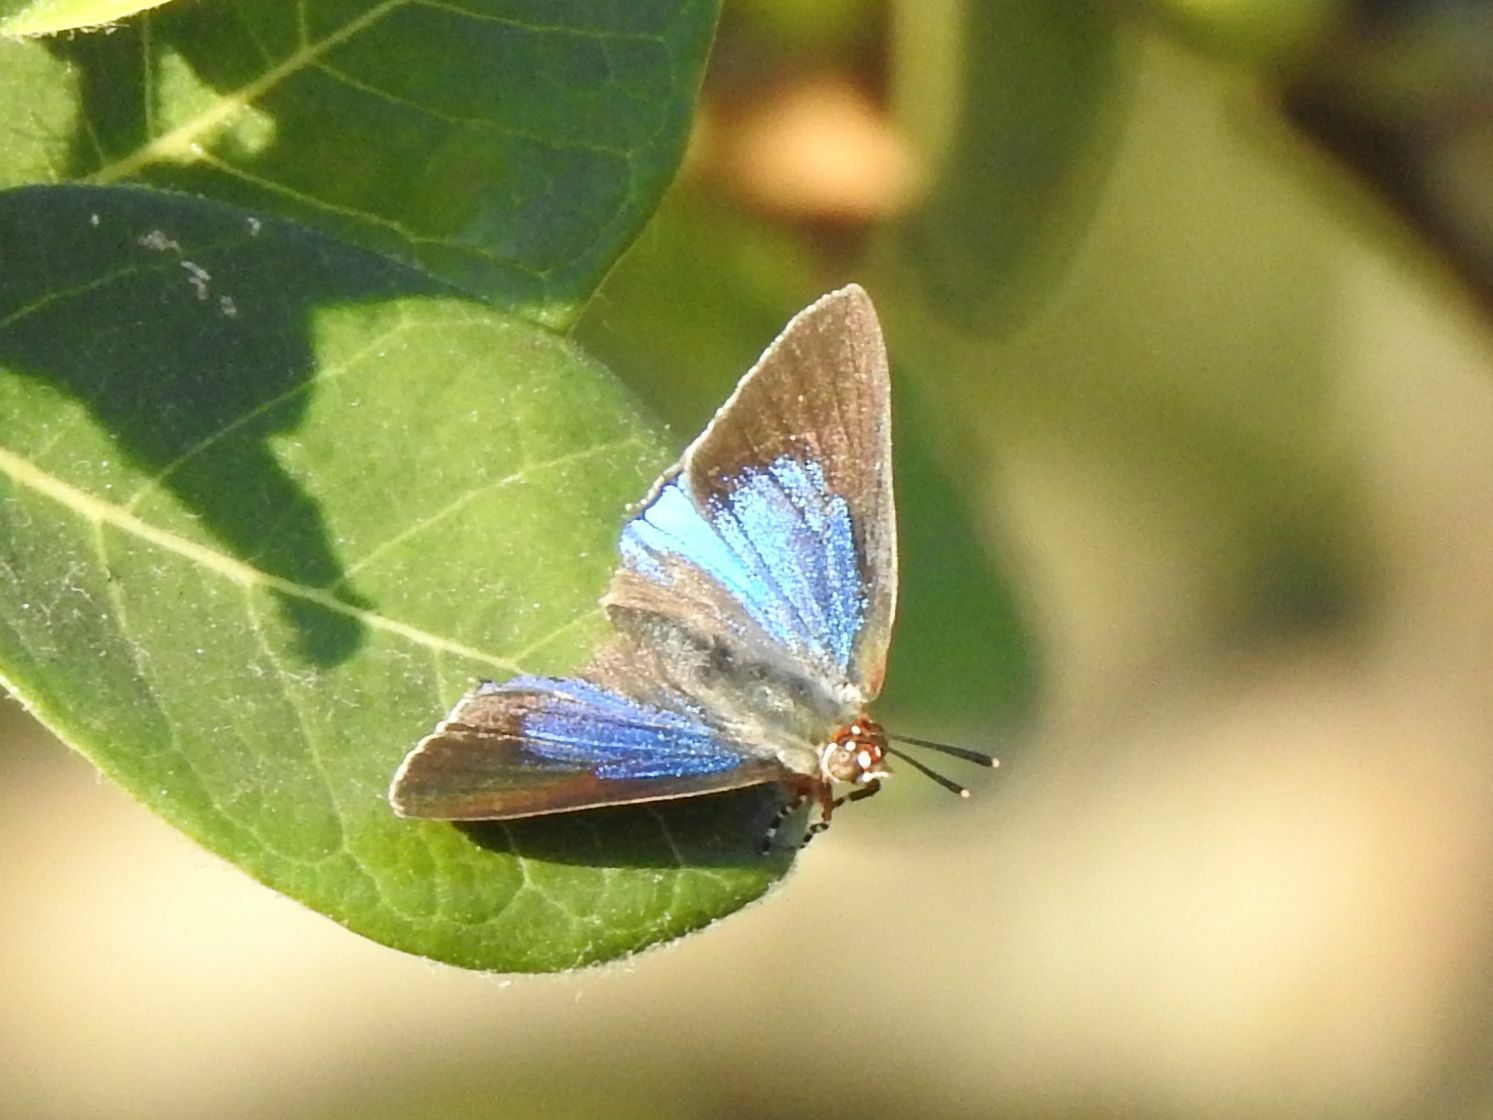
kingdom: Animalia
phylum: Arthropoda
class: Insecta
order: Lepidoptera
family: Lycaenidae
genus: Argiolaus
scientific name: Argiolaus silas
